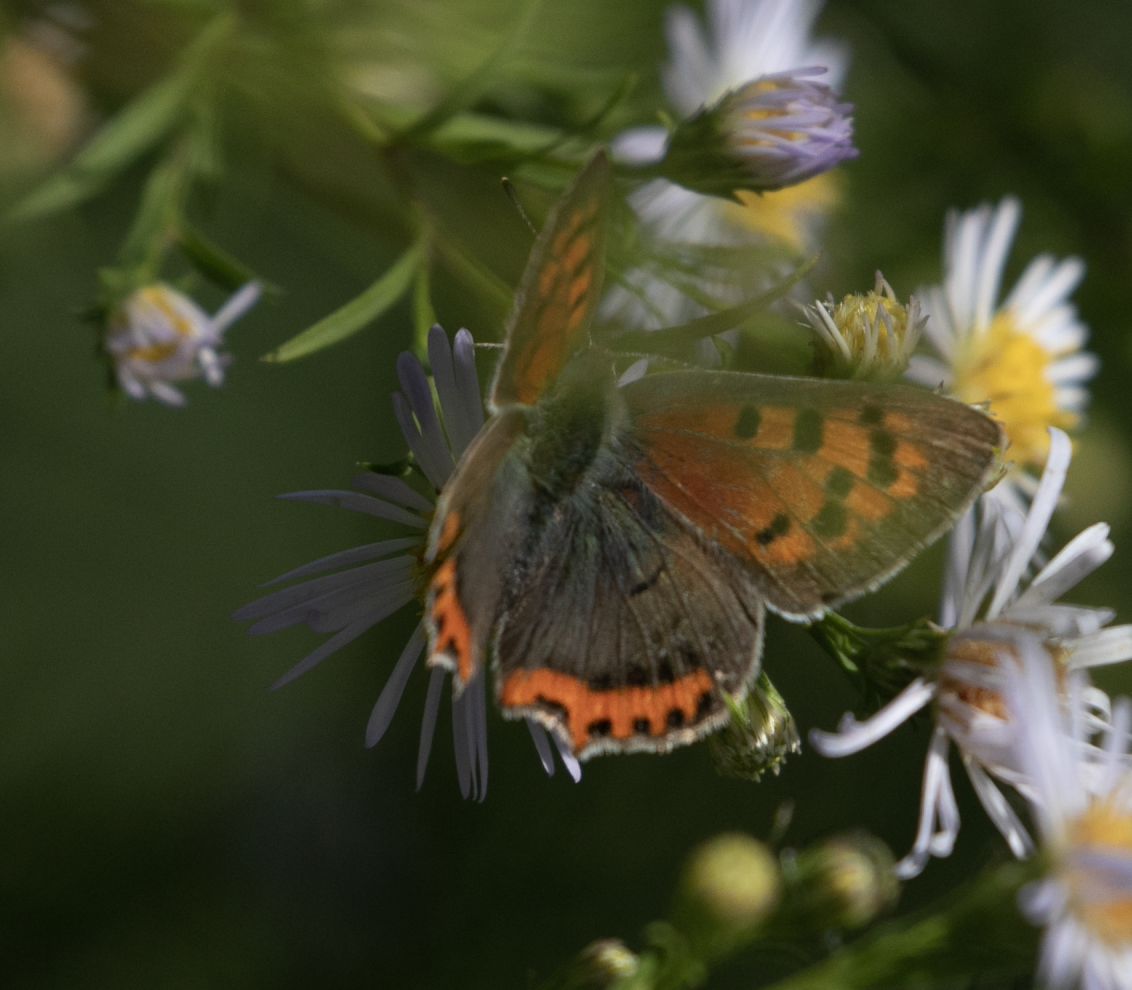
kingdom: Animalia
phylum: Arthropoda
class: Insecta
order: Lepidoptera
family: Lycaenidae
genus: Lycaena
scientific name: Lycaena phlaeas
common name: Small copper
